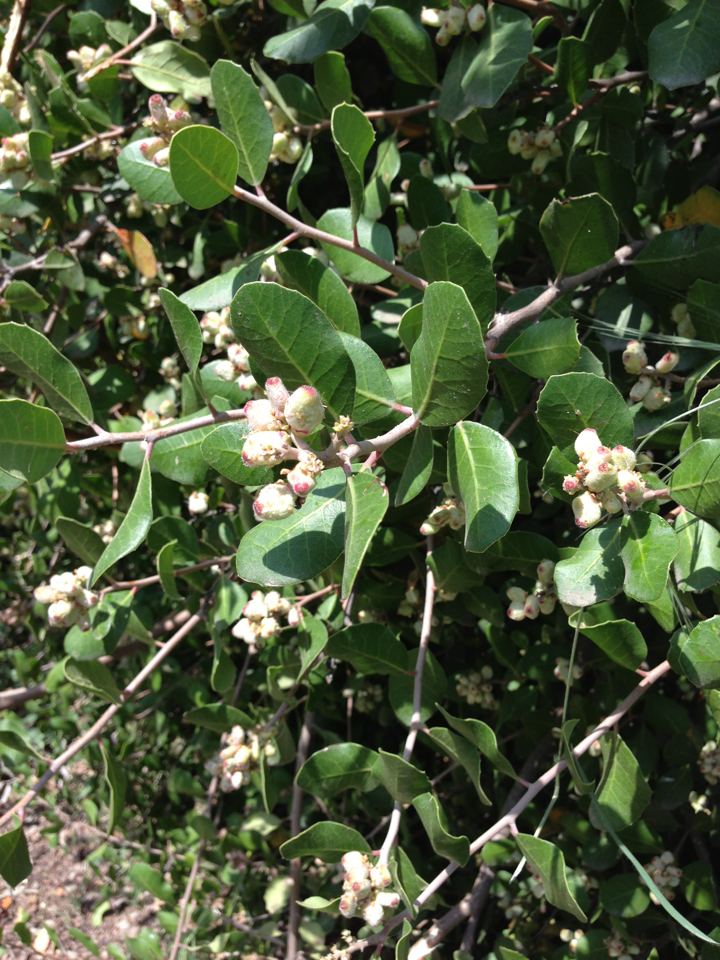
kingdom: Plantae
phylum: Tracheophyta
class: Magnoliopsida
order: Sapindales
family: Anacardiaceae
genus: Rhus
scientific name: Rhus integrifolia
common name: Lemonade sumac
